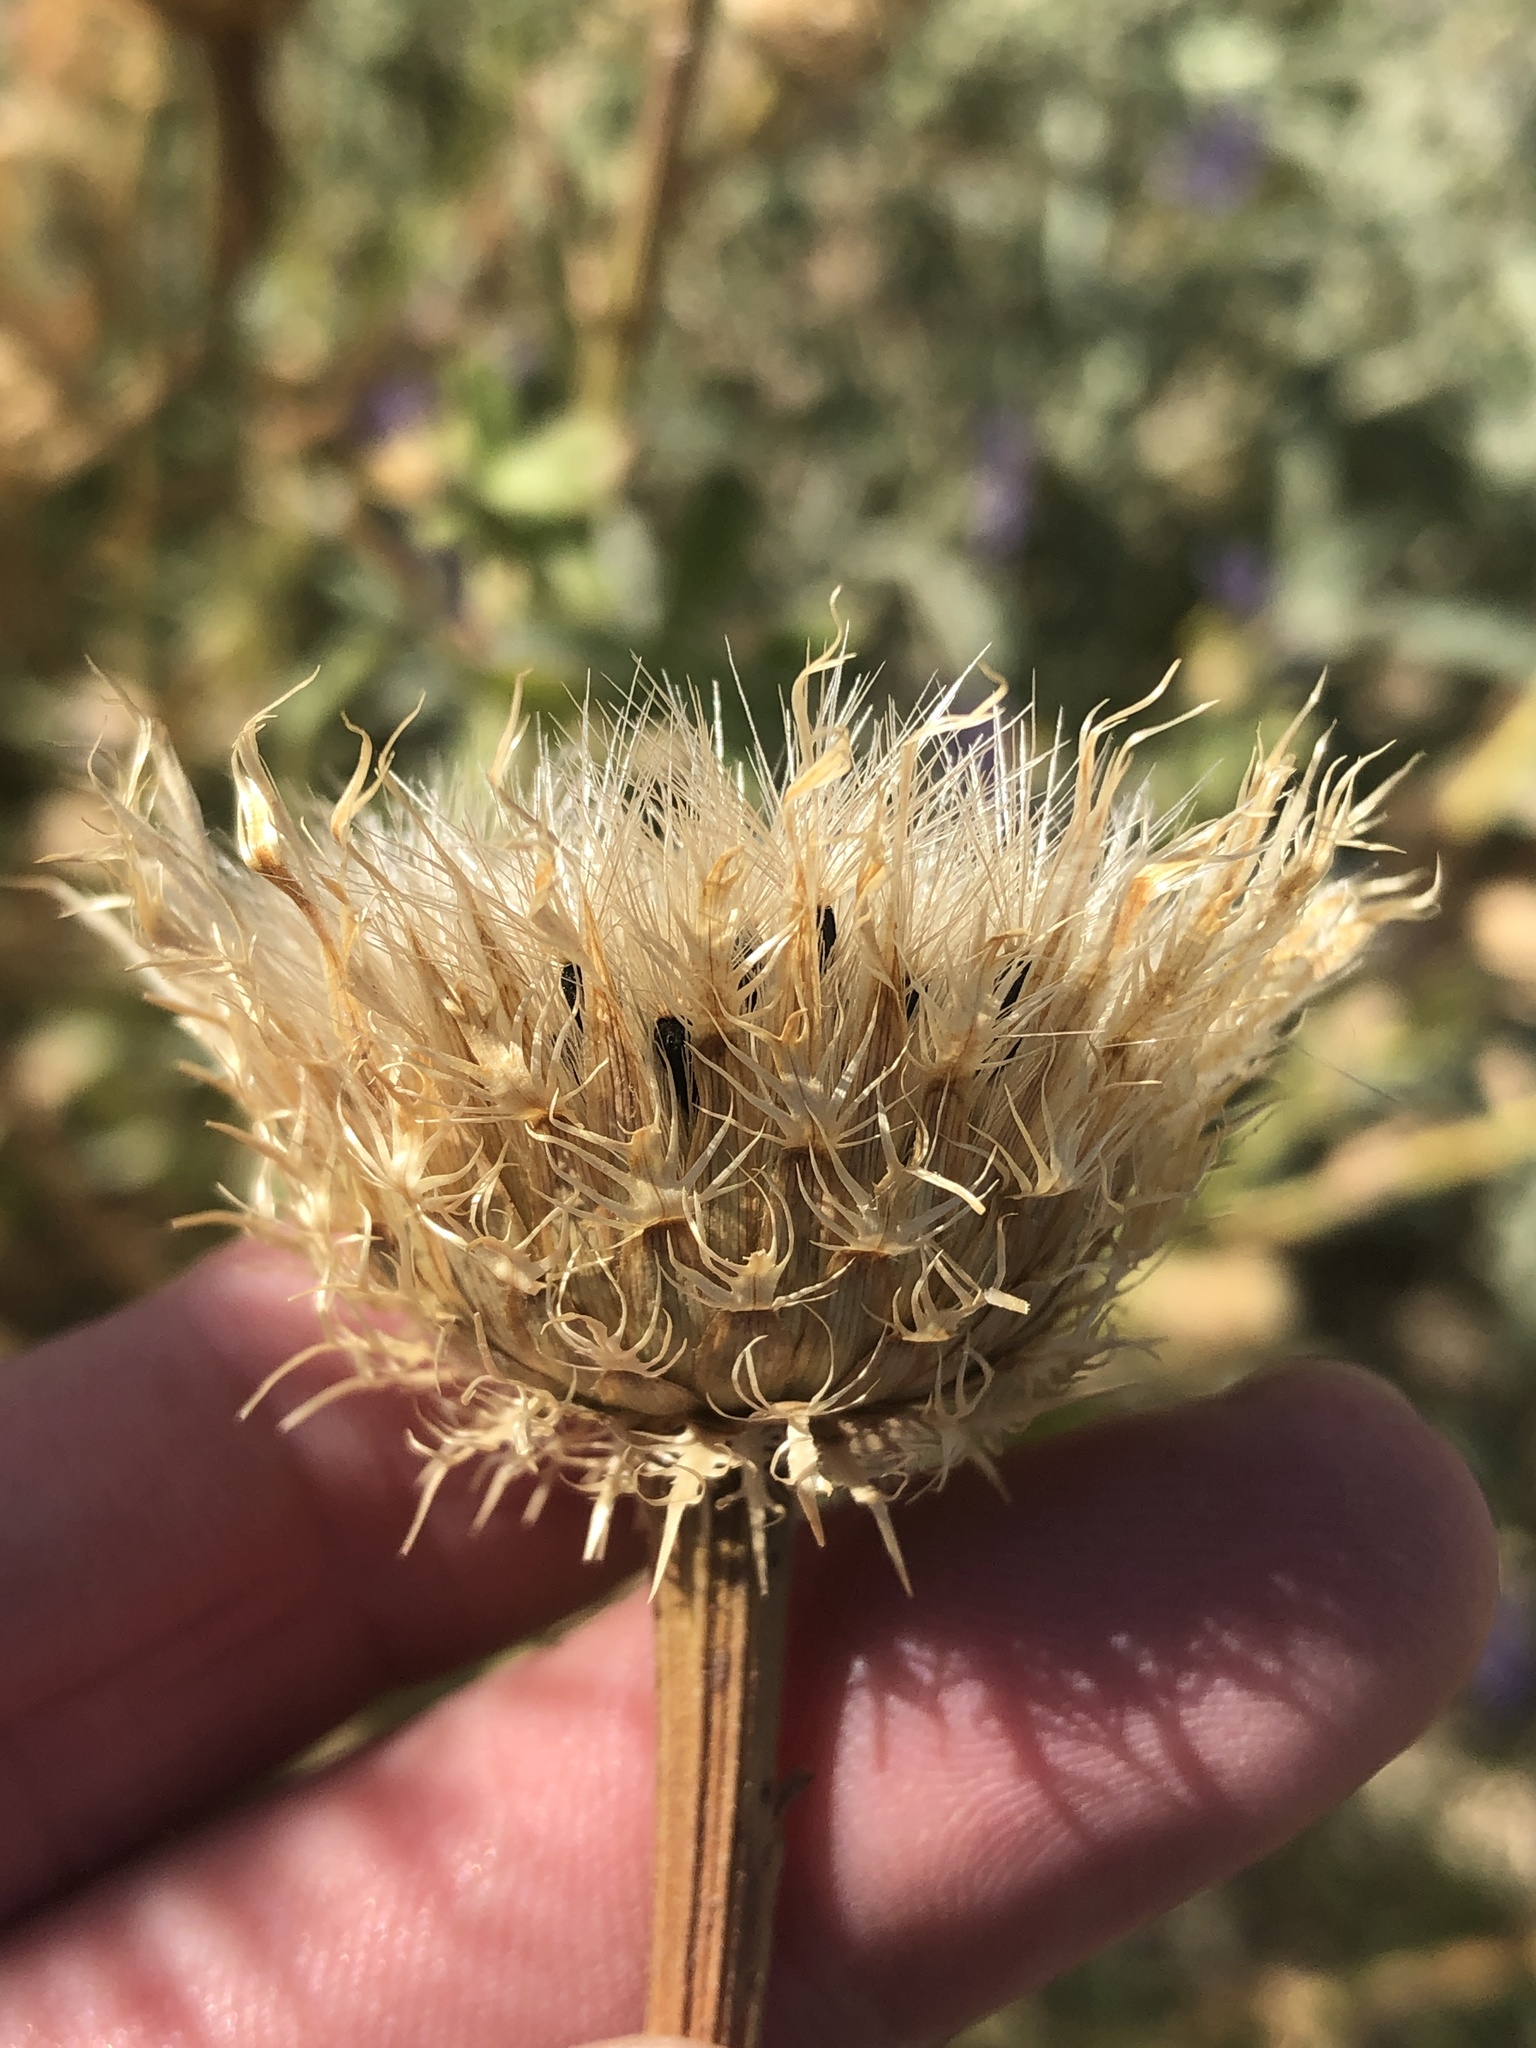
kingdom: Plantae
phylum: Tracheophyta
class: Magnoliopsida
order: Asterales
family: Asteraceae
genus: Plectocephalus
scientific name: Plectocephalus americanus
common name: American basket-flower
